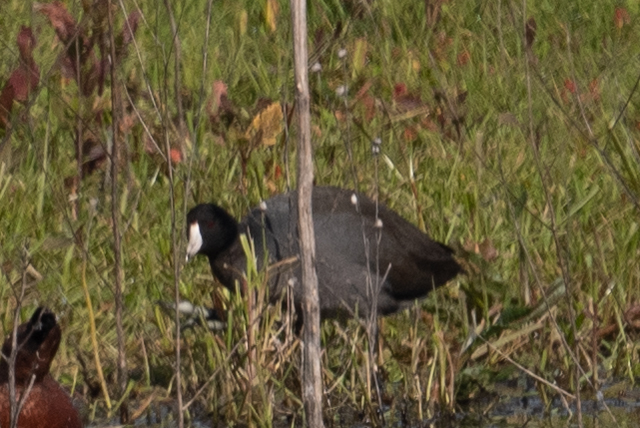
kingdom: Animalia
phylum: Chordata
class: Aves
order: Gruiformes
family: Rallidae
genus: Fulica
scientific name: Fulica americana
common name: American coot
